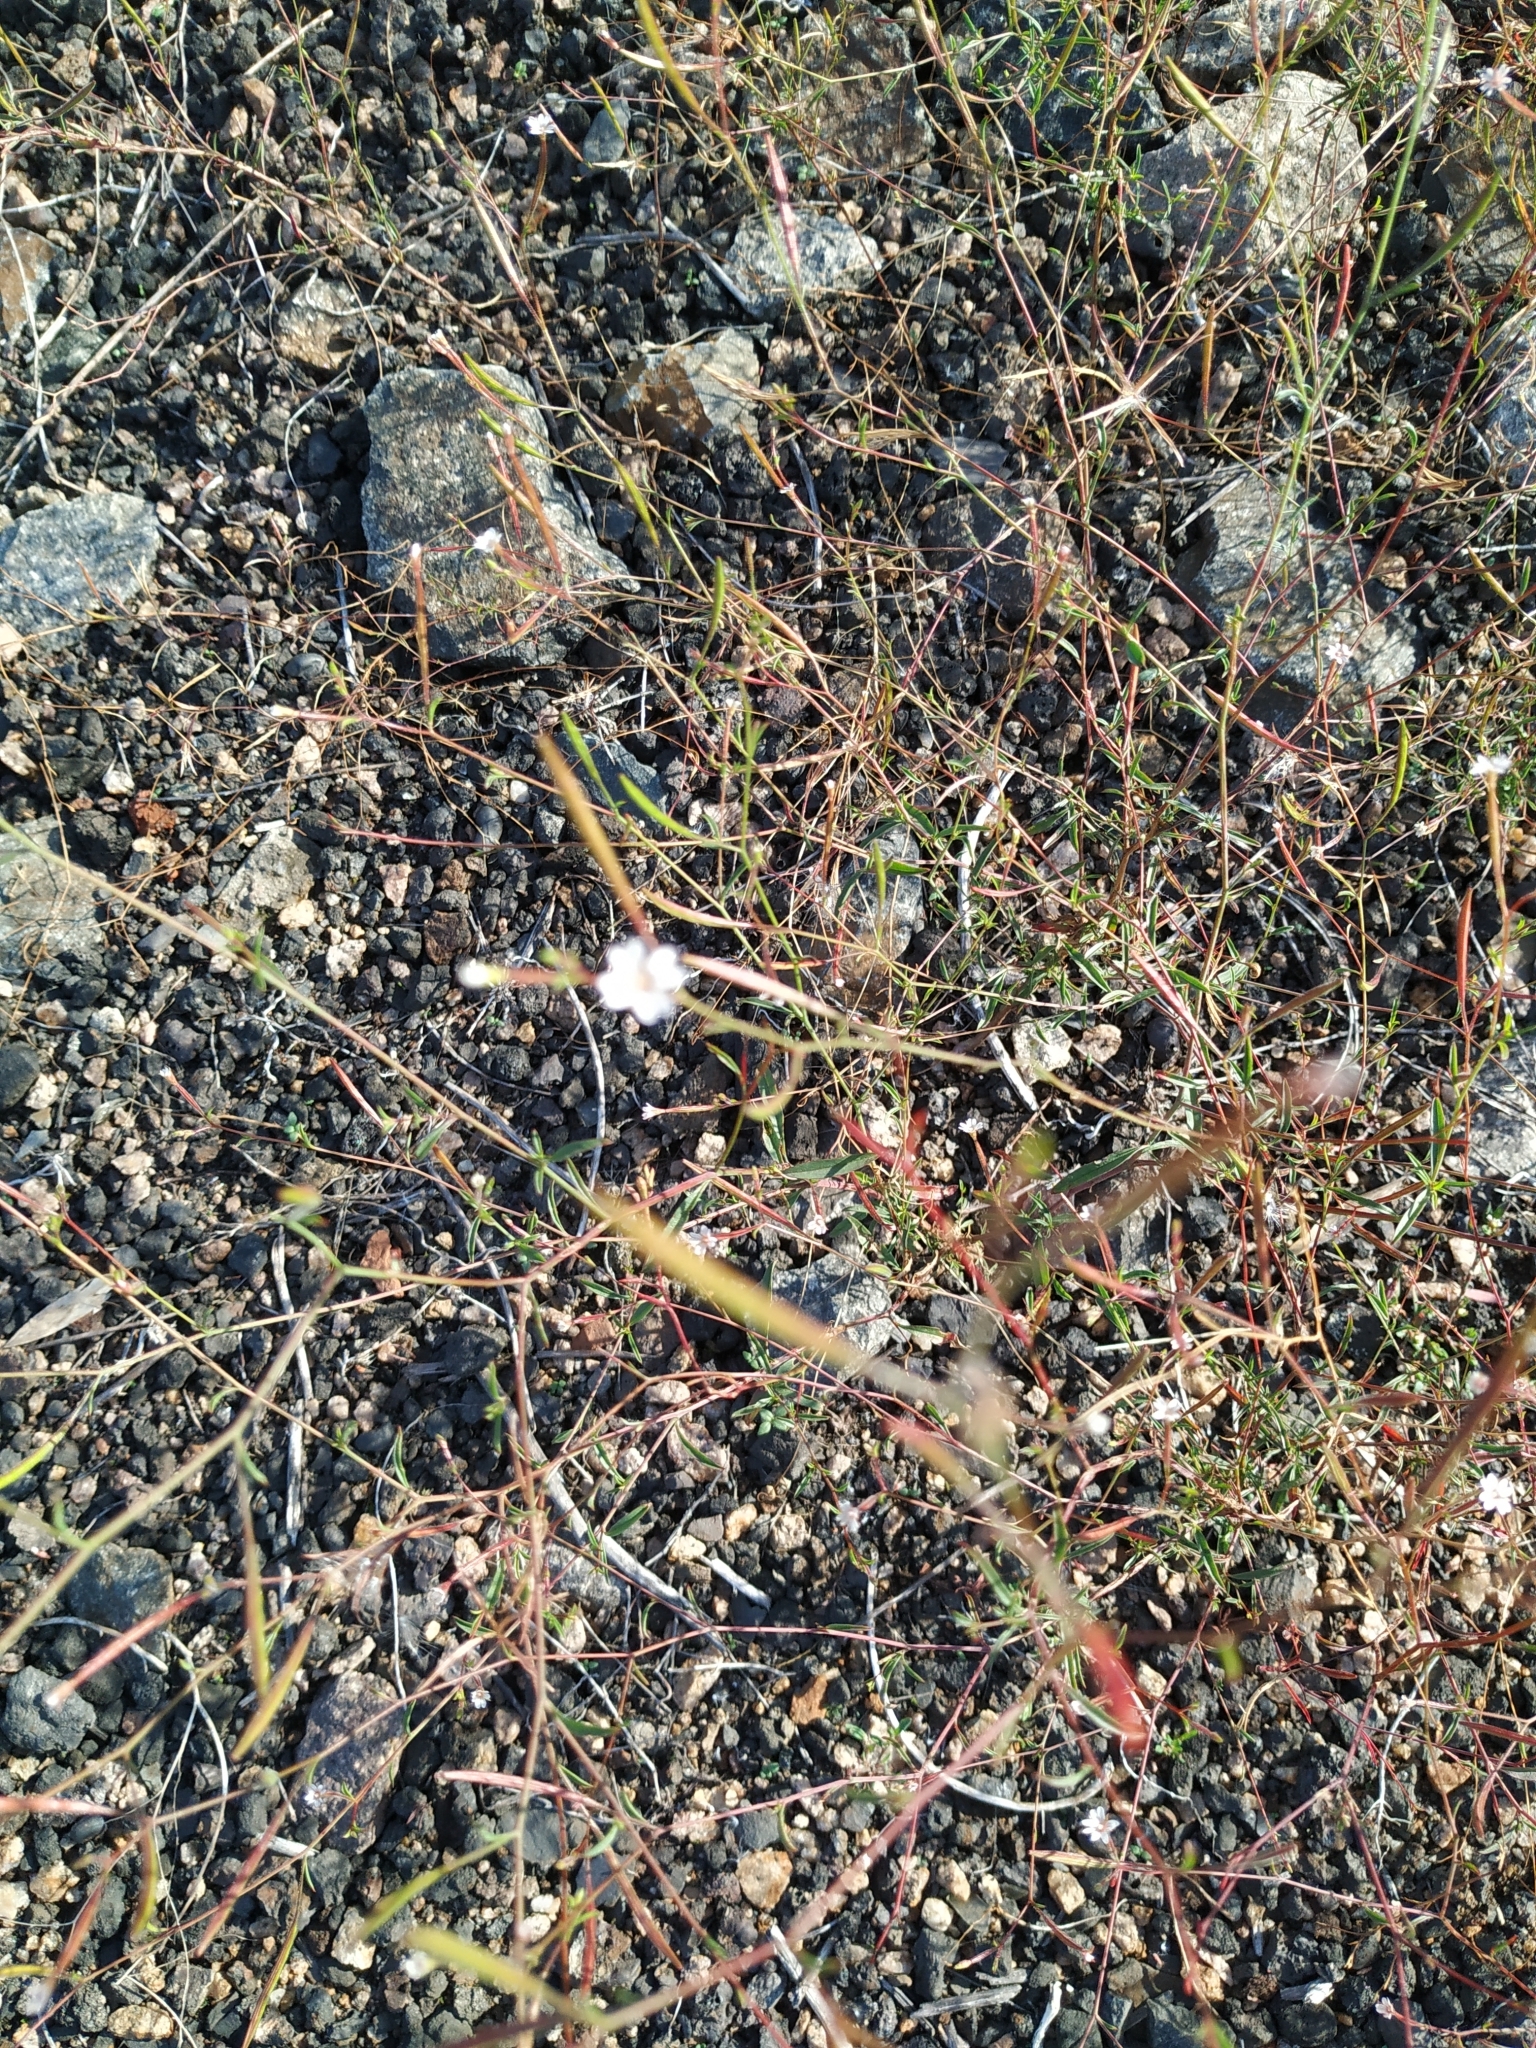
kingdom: Plantae
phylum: Tracheophyta
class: Magnoliopsida
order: Myrtales
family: Onagraceae
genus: Epilobium
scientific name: Epilobium brachycarpum
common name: Annual willowherb
